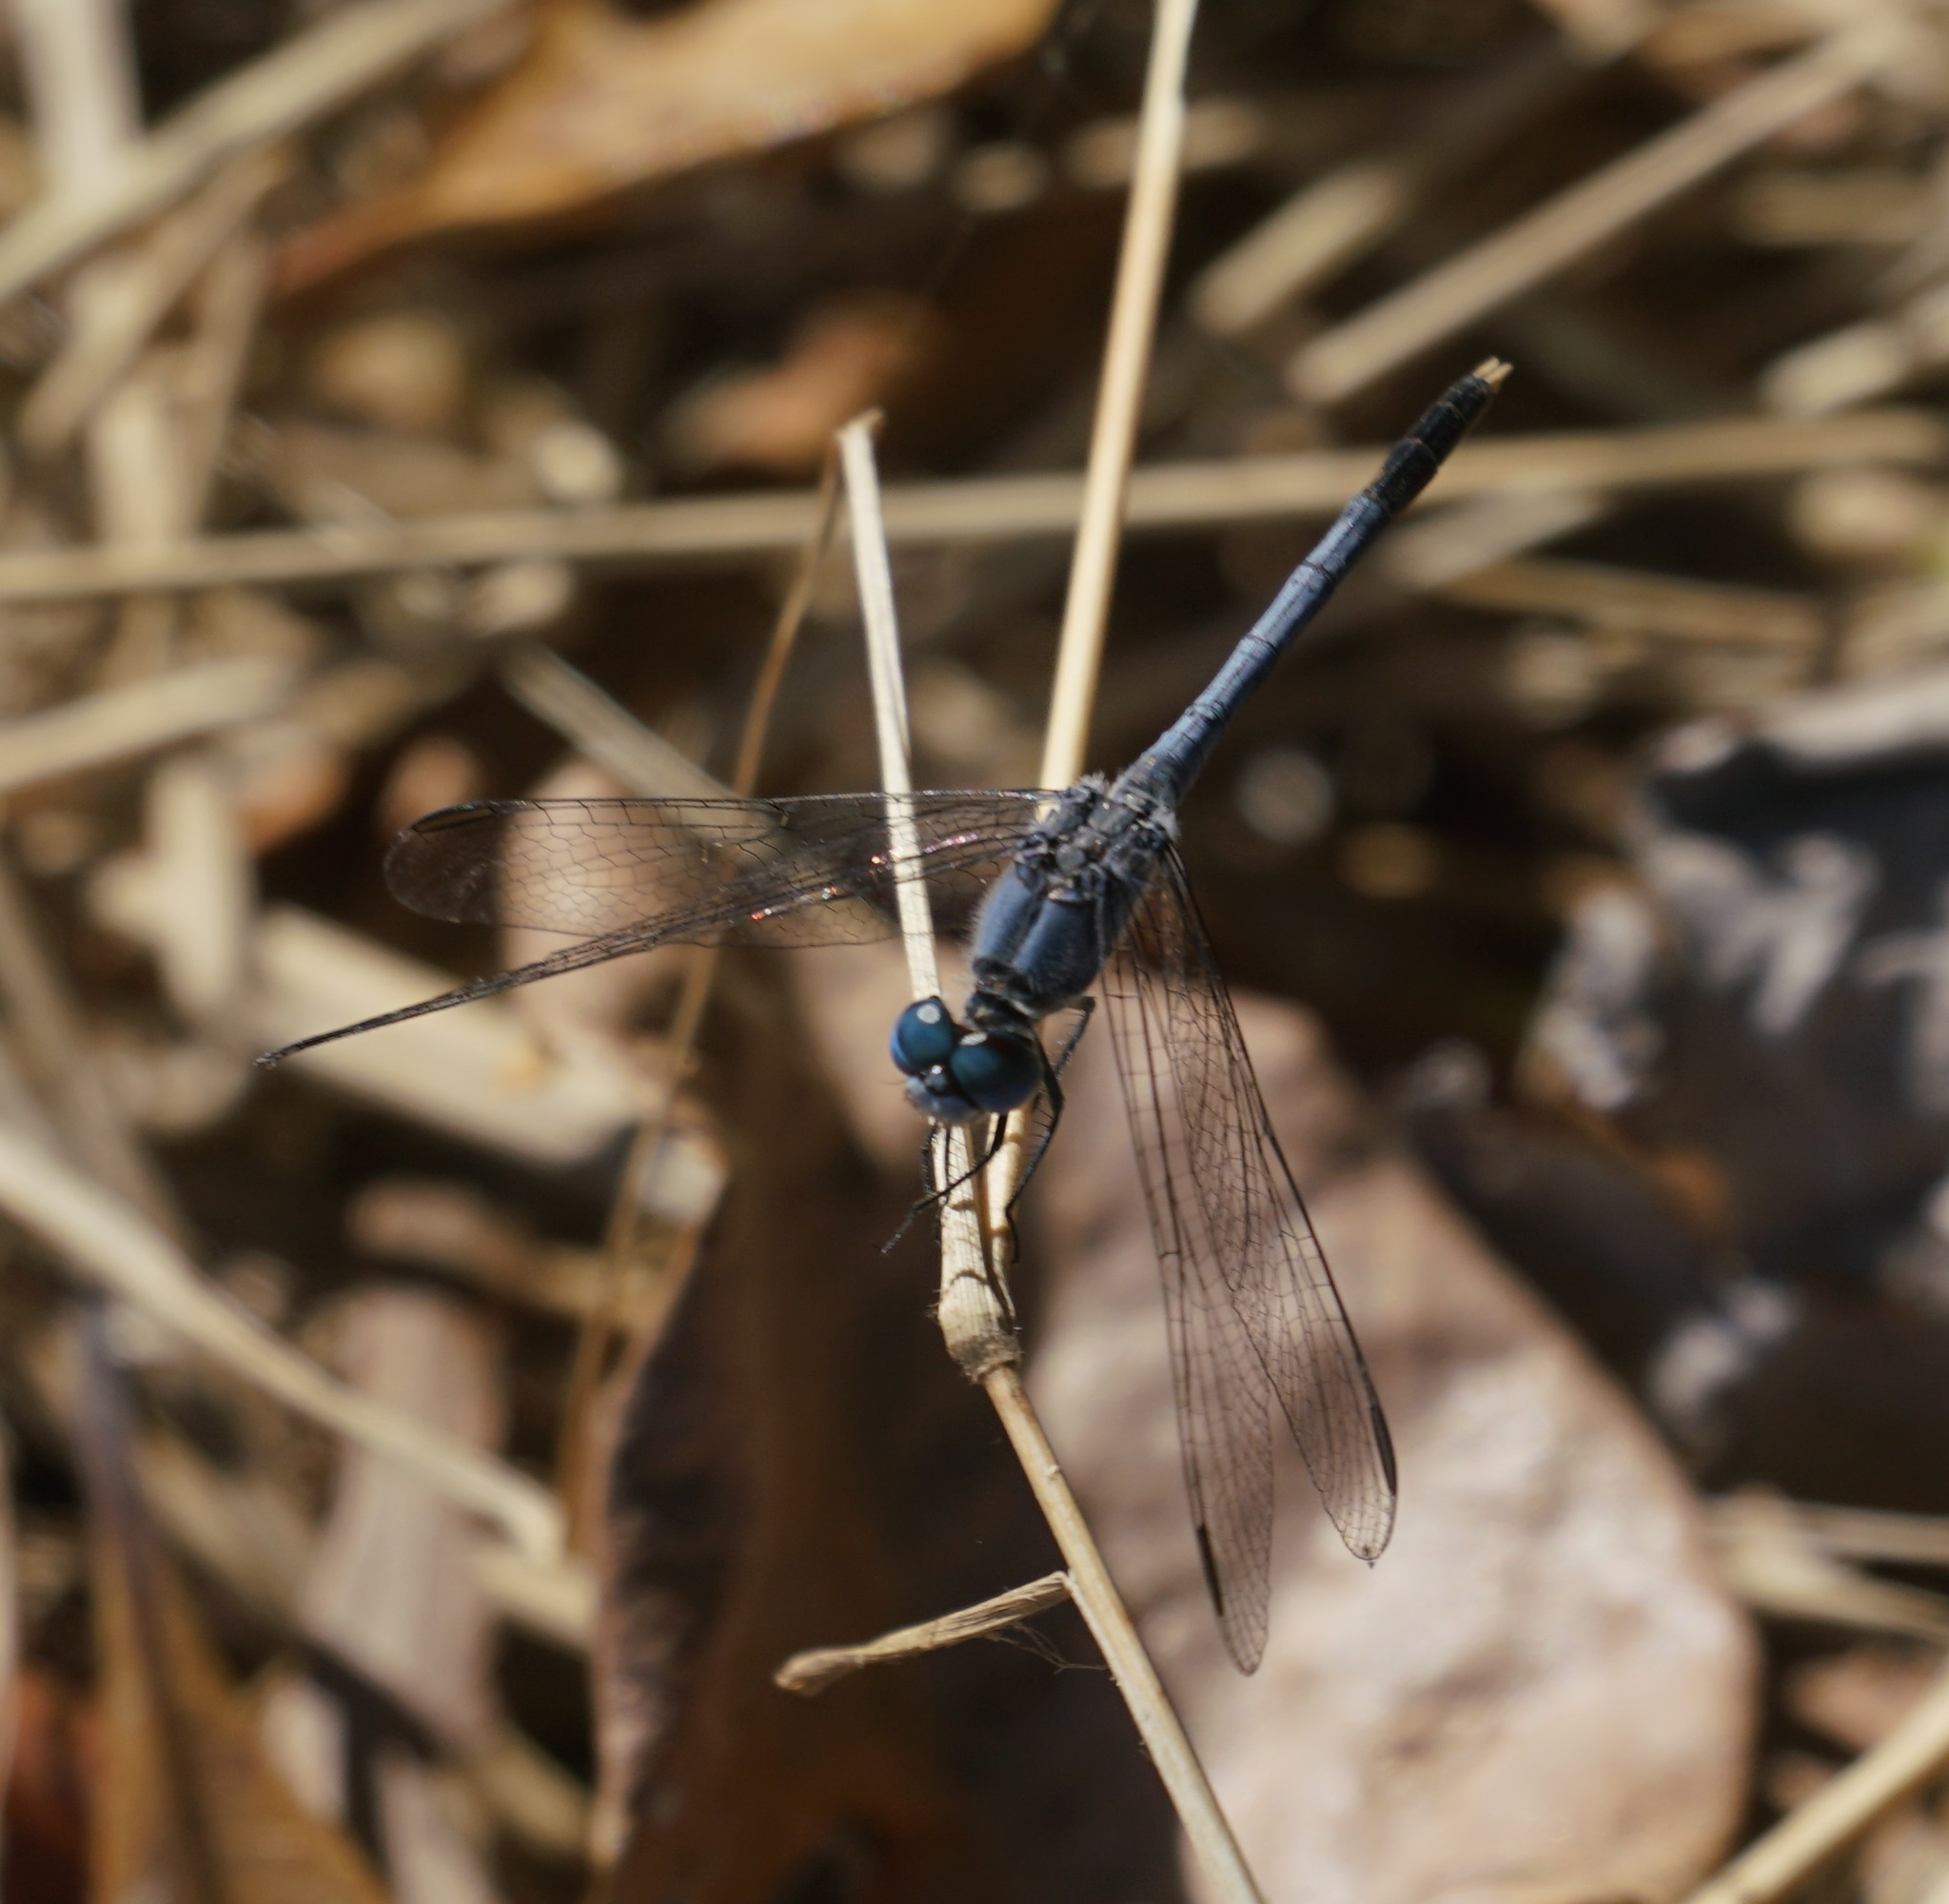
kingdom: Animalia
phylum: Arthropoda
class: Insecta
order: Odonata
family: Libellulidae
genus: Diplacodes
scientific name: Diplacodes trivialis
